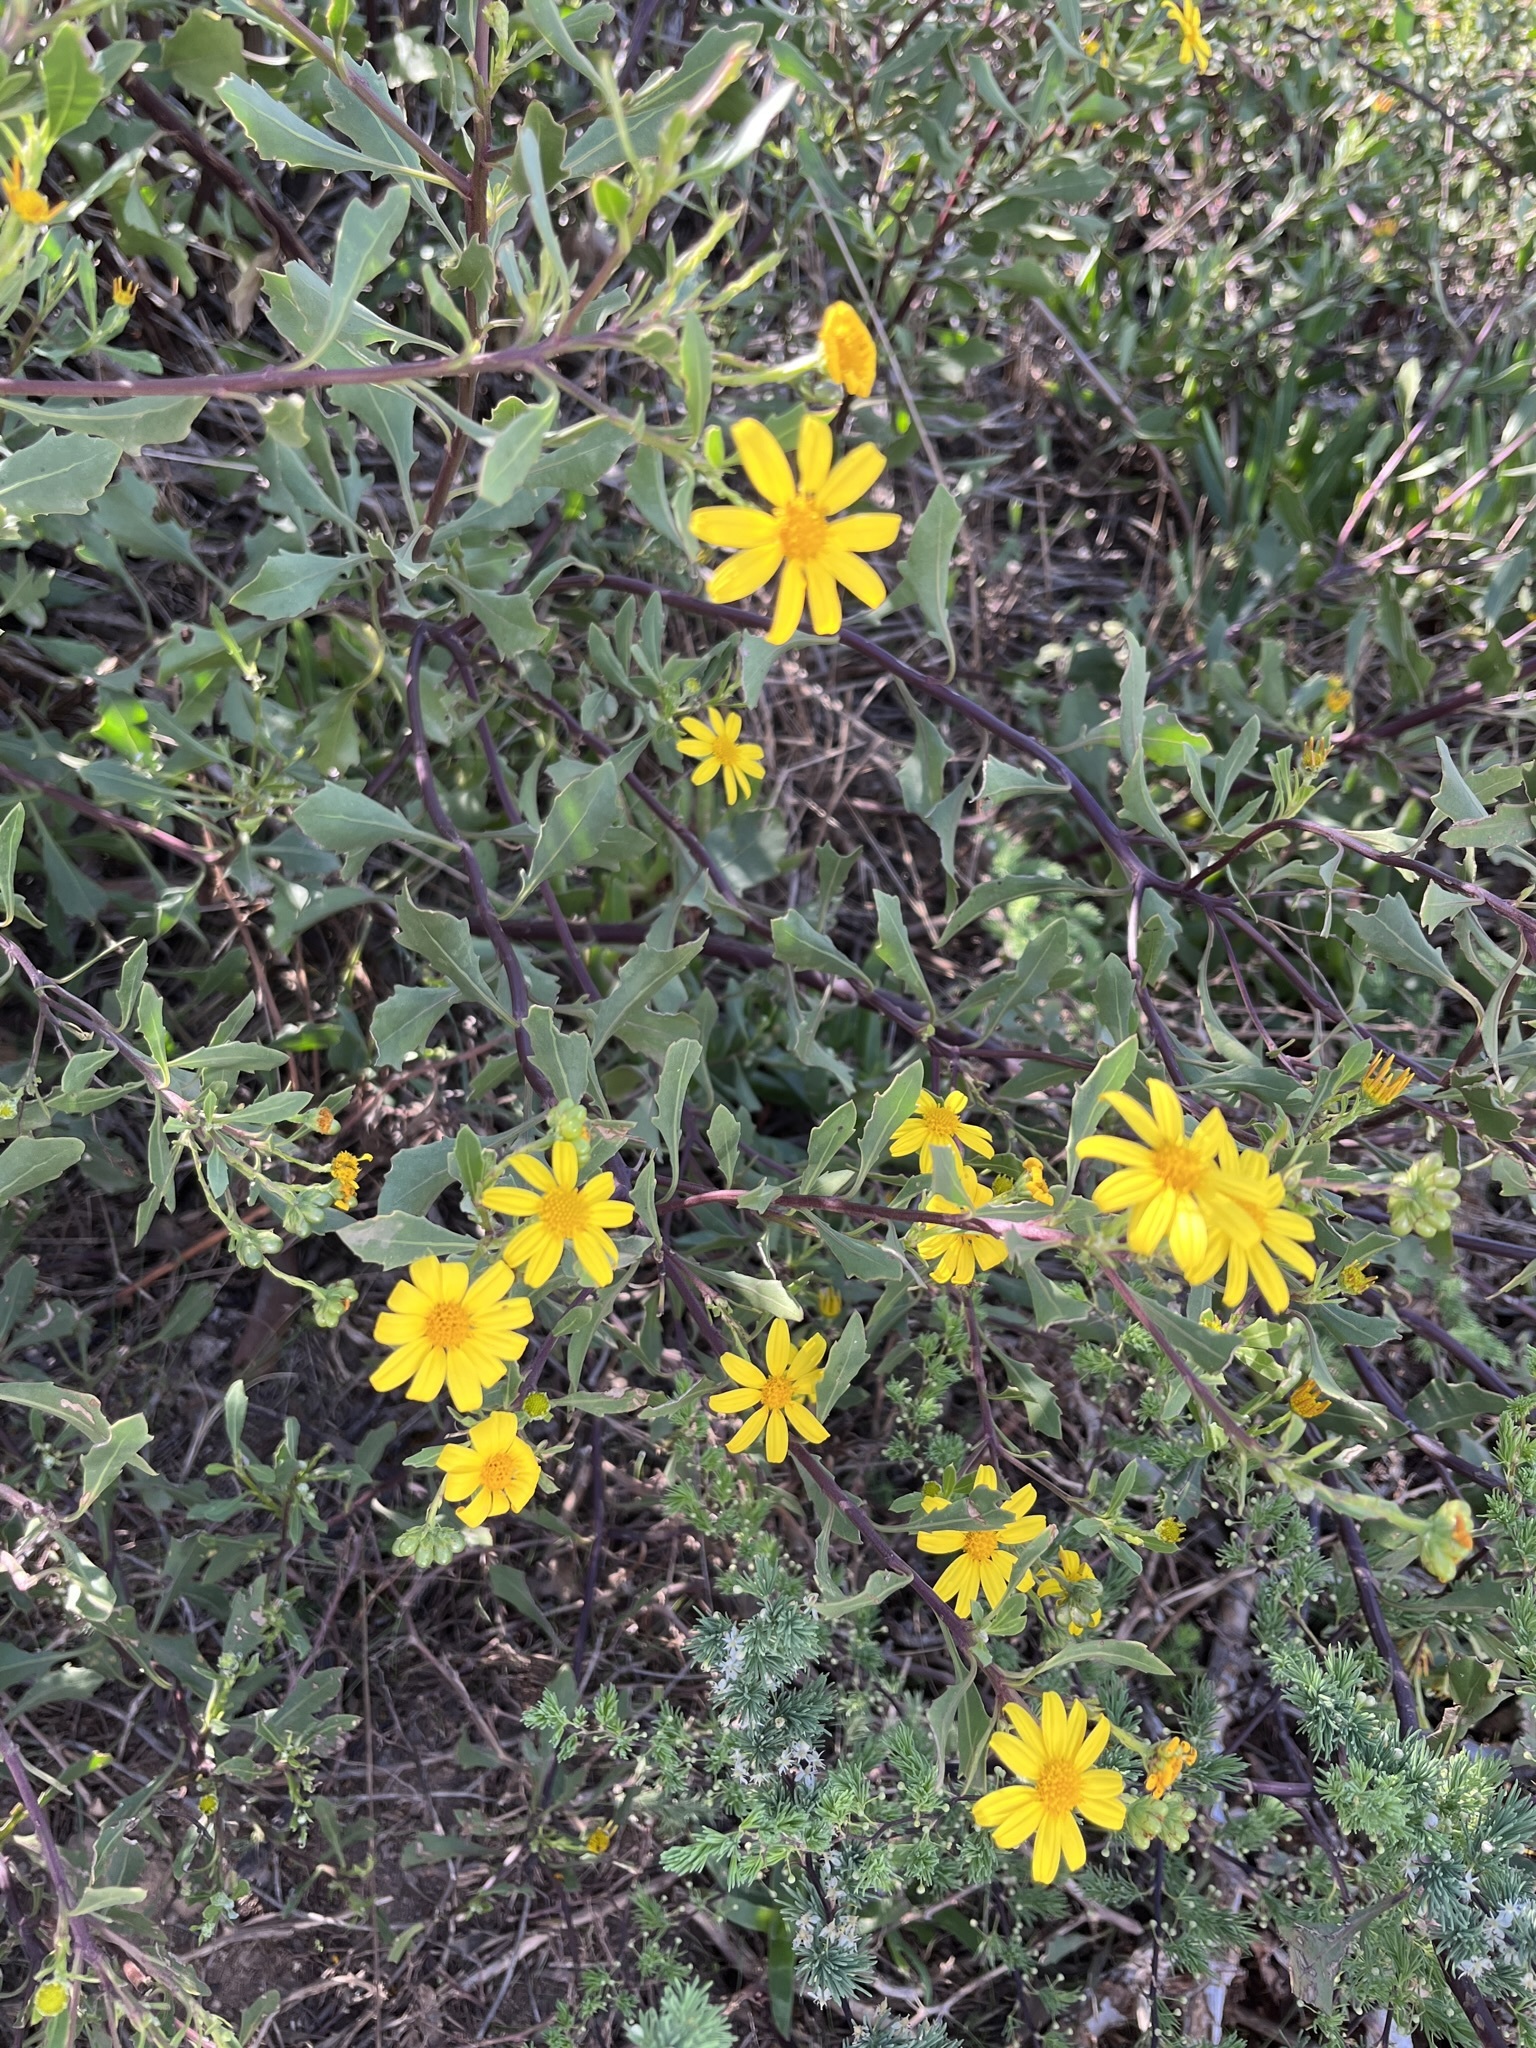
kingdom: Plantae
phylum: Tracheophyta
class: Magnoliopsida
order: Asterales
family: Asteraceae
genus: Osteospermum
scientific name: Osteospermum moniliferum
